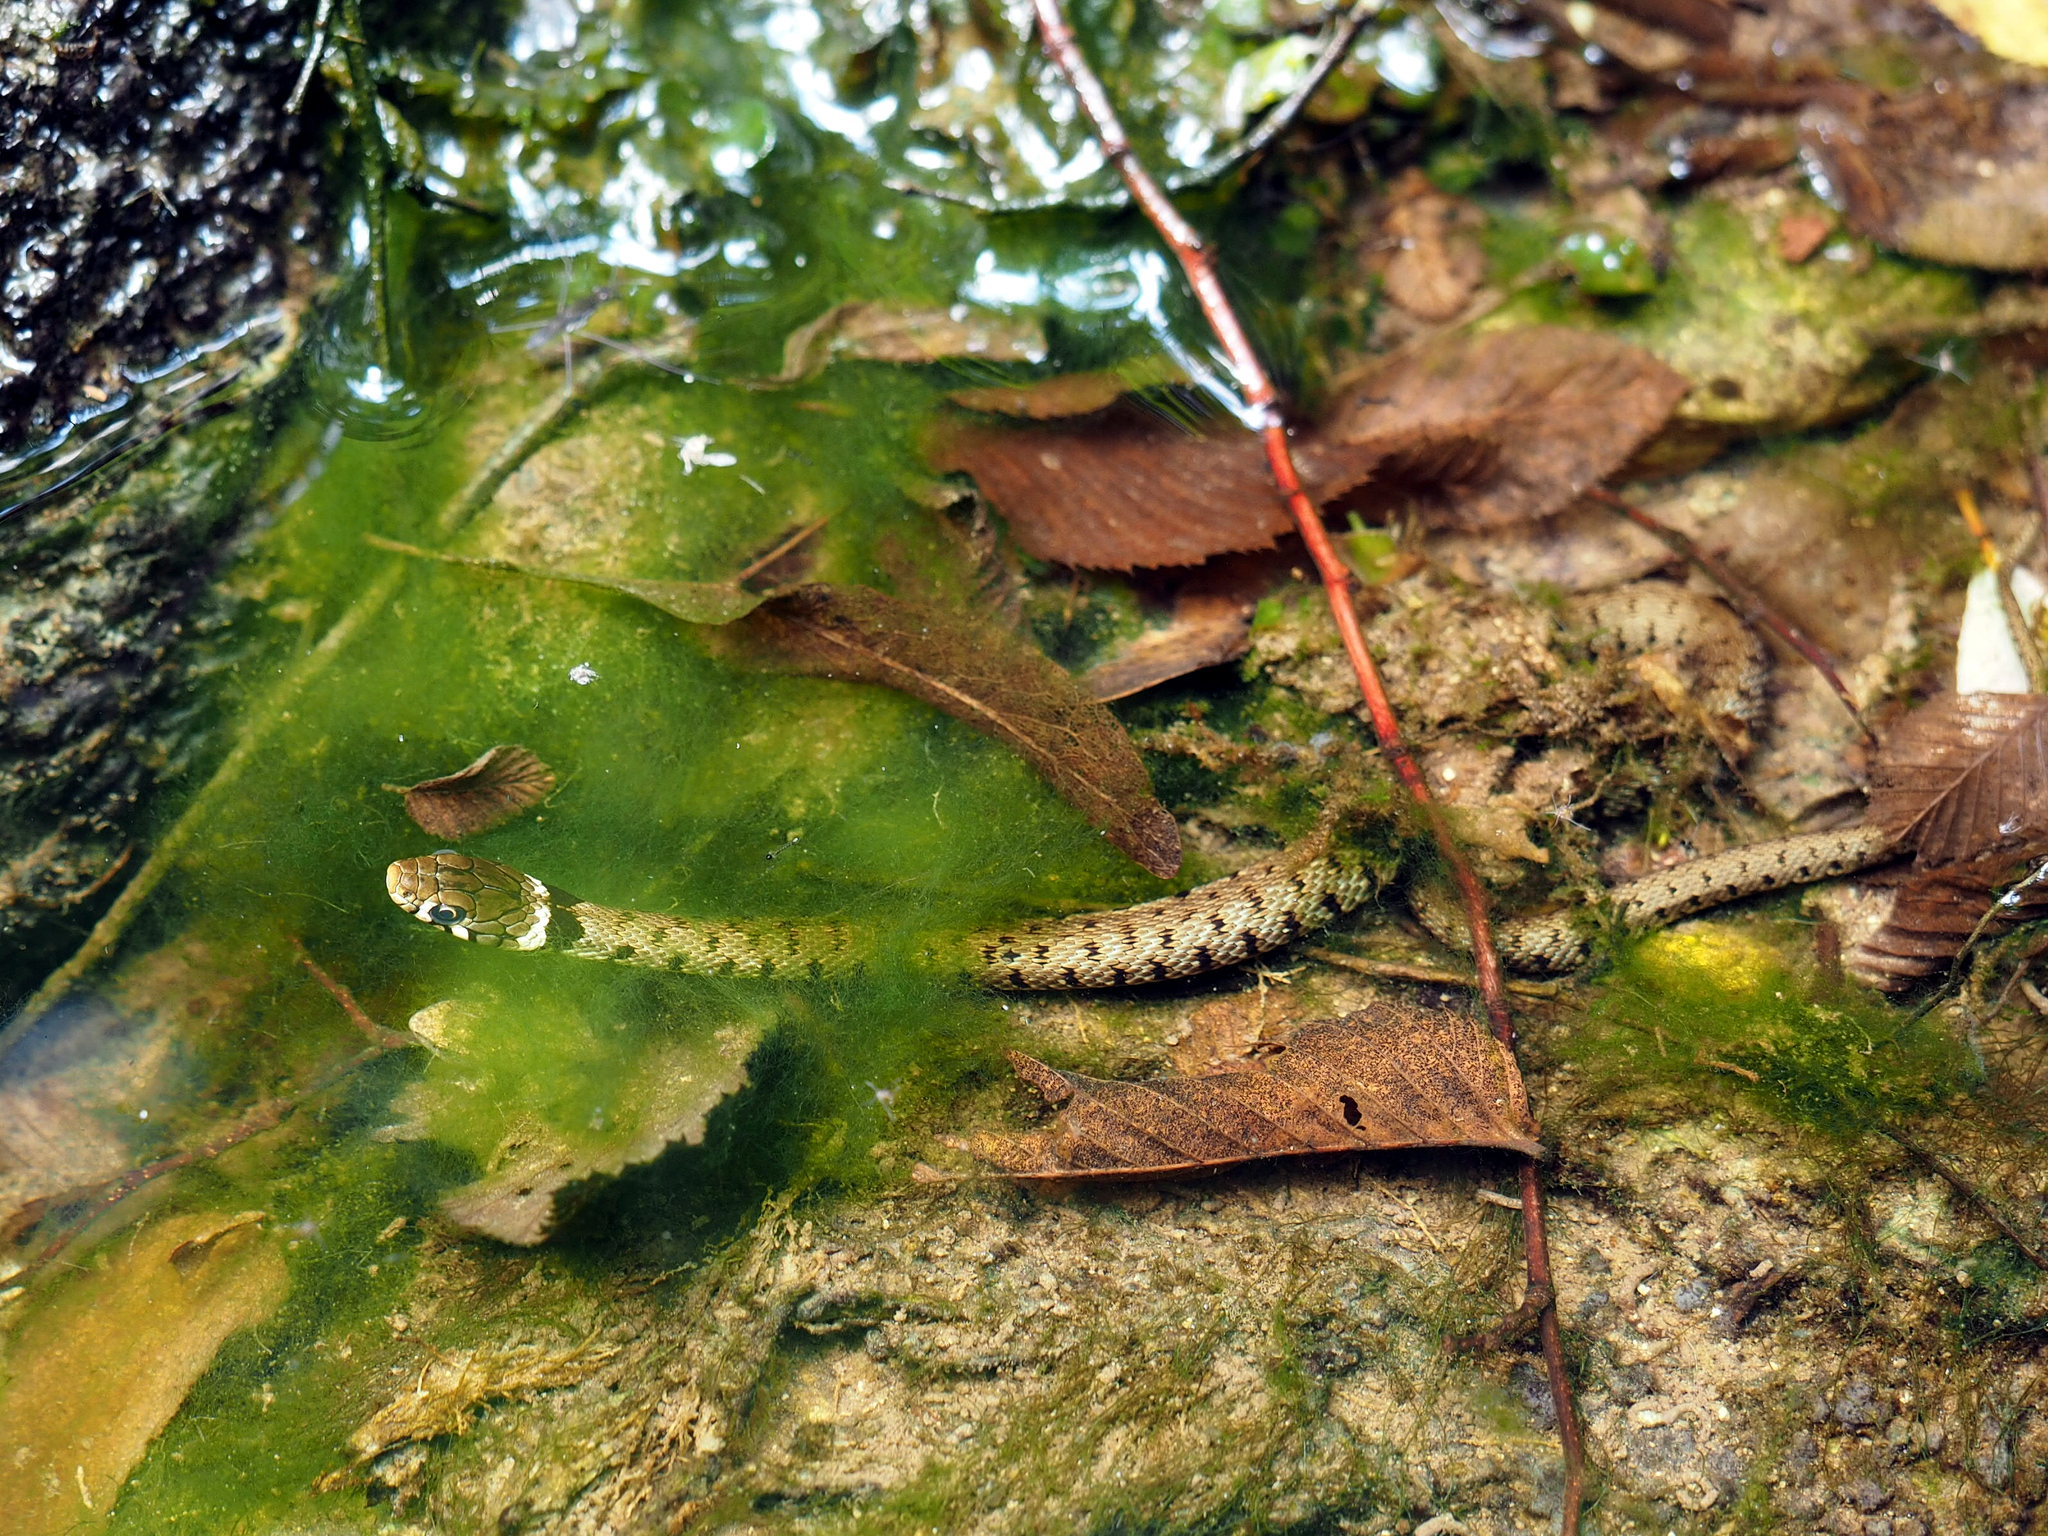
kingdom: Animalia
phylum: Chordata
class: Squamata
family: Colubridae
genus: Natrix
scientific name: Natrix helvetica
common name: Banded grass snake
